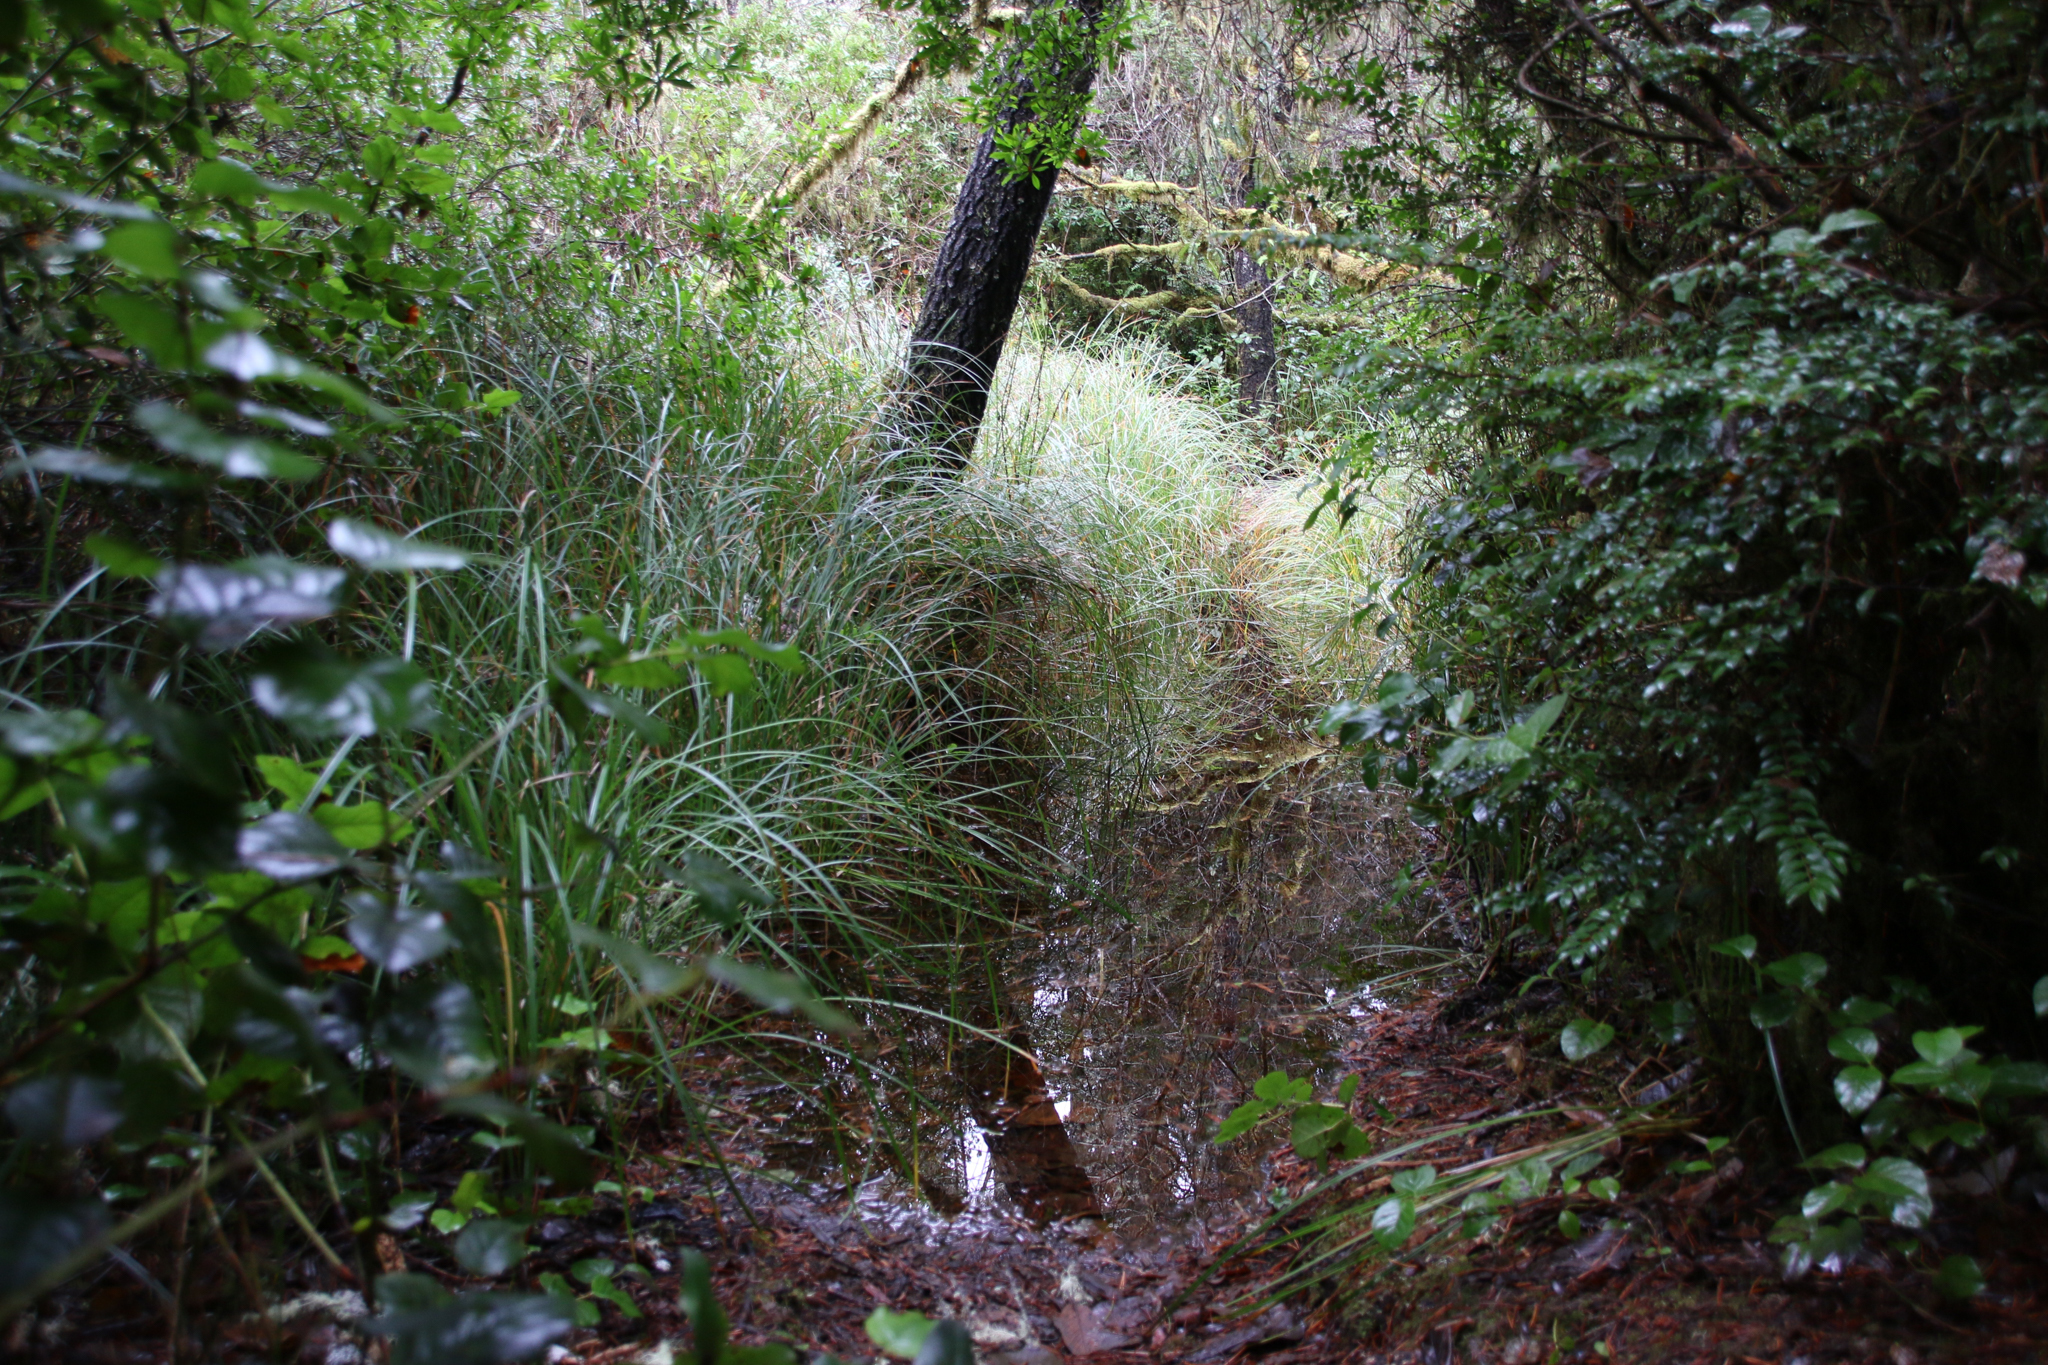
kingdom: Plantae
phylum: Tracheophyta
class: Liliopsida
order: Poales
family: Cyperaceae
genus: Carex
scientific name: Carex obnupta
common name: Slough sedge
